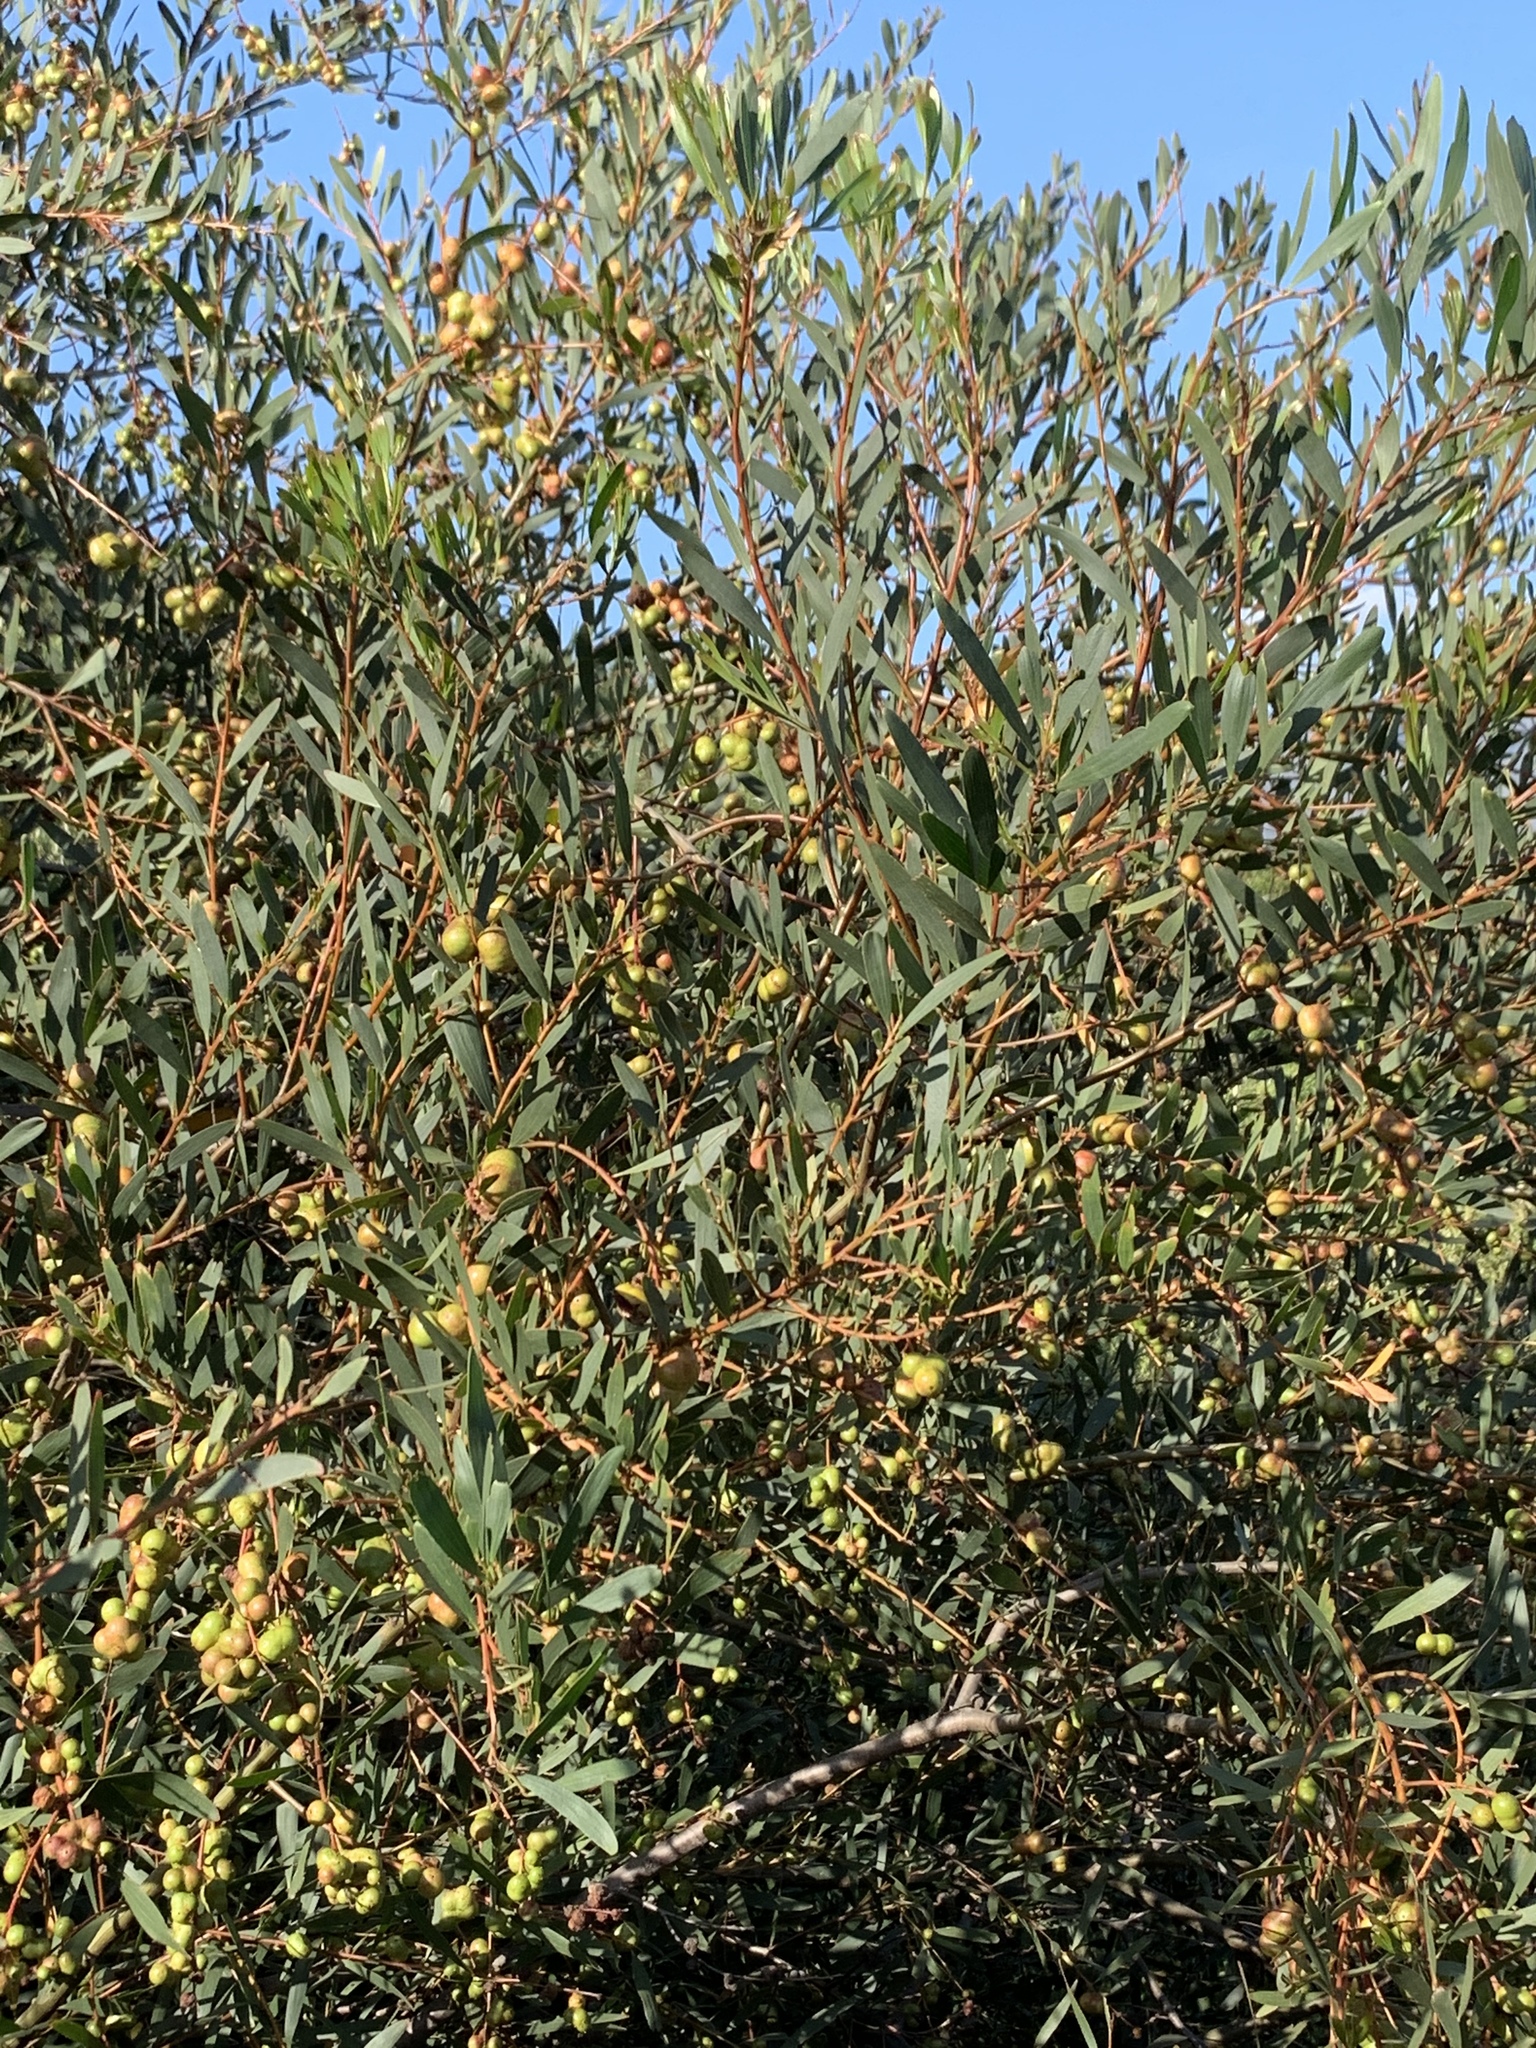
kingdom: Plantae
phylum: Tracheophyta
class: Magnoliopsida
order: Fabales
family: Fabaceae
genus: Acacia
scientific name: Acacia longifolia
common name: Sydney golden wattle
